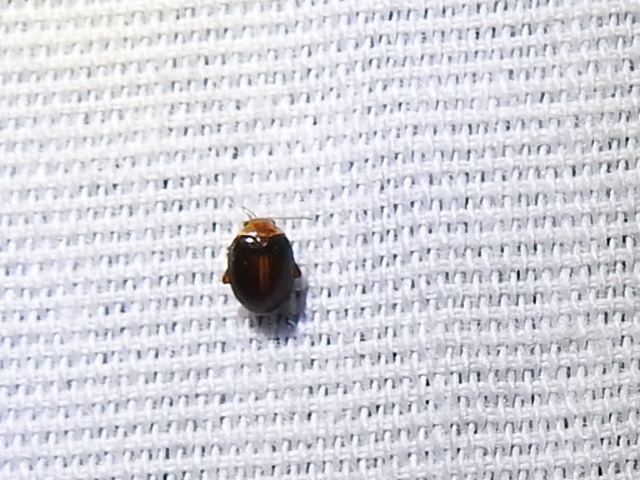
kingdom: Animalia
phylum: Arthropoda
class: Insecta
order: Coleoptera
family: Scirtidae
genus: Scirtes
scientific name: Scirtes orbiculatus
